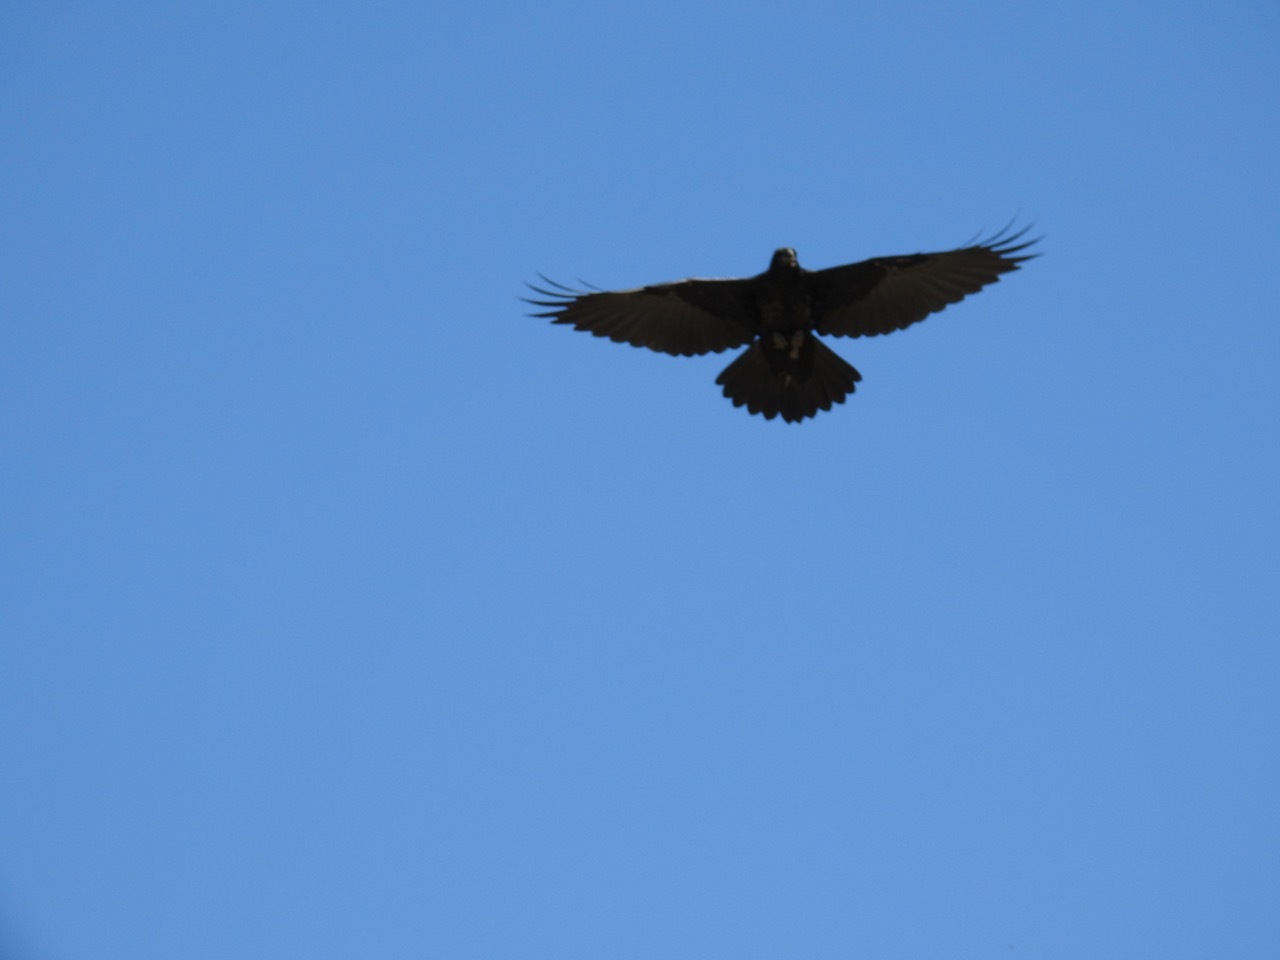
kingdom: Animalia
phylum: Chordata
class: Aves
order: Passeriformes
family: Corvidae
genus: Corvus
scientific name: Corvus corax
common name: Common raven
